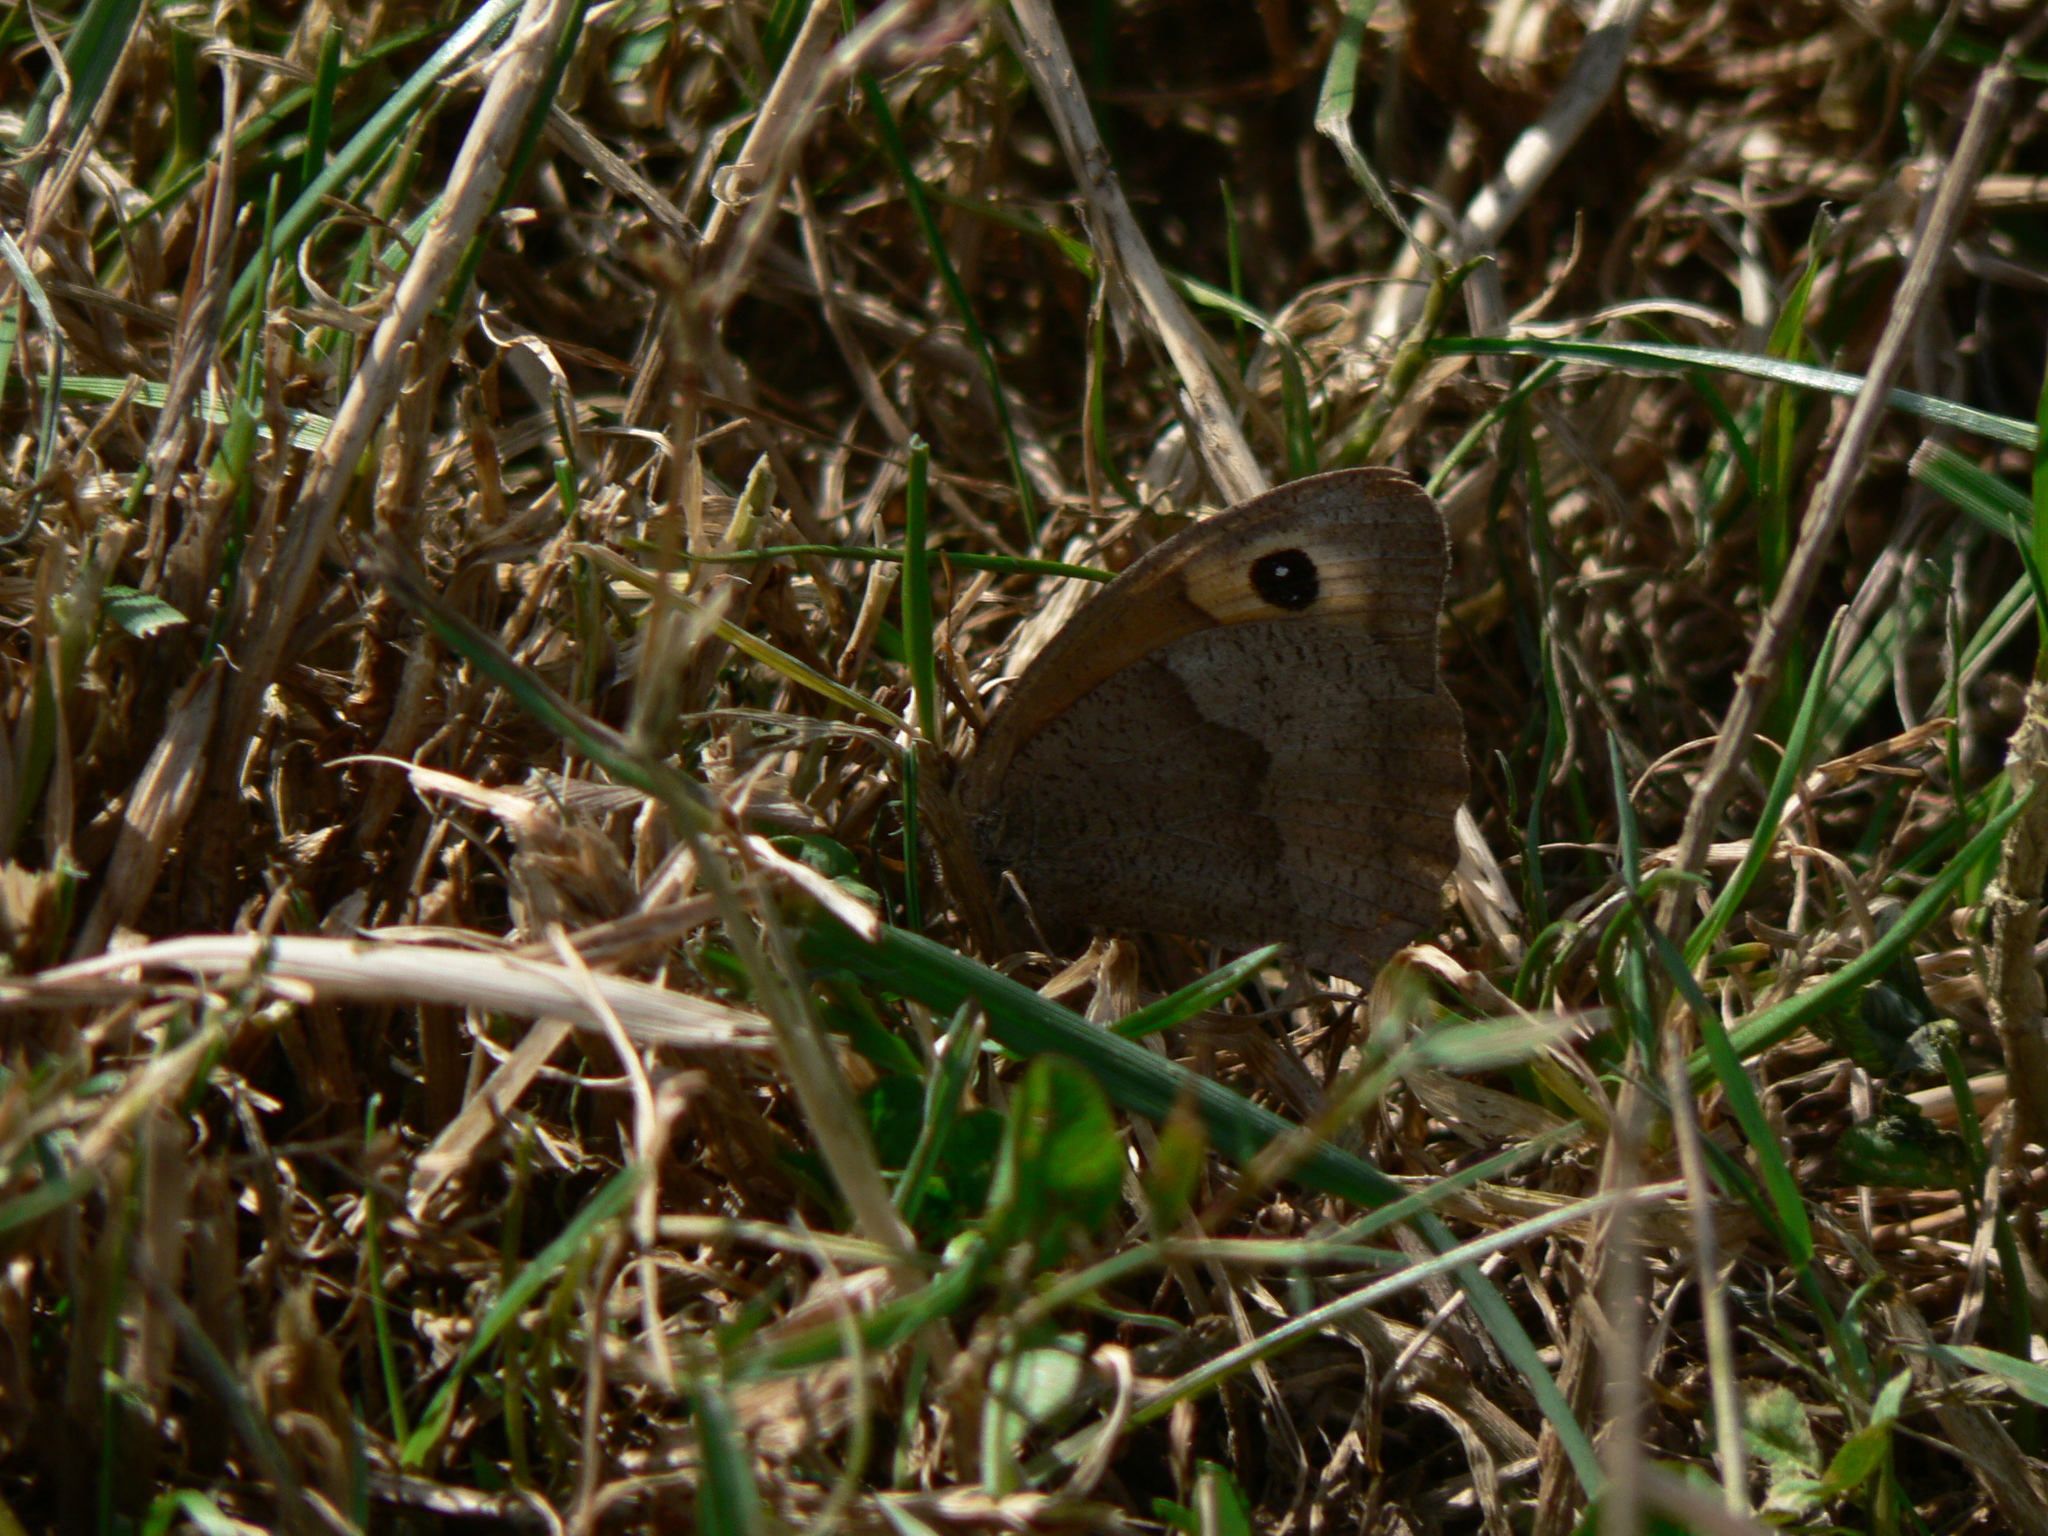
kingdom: Animalia
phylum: Arthropoda
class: Insecta
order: Lepidoptera
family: Nymphalidae
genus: Maniola
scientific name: Maniola jurtina
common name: Meadow brown
